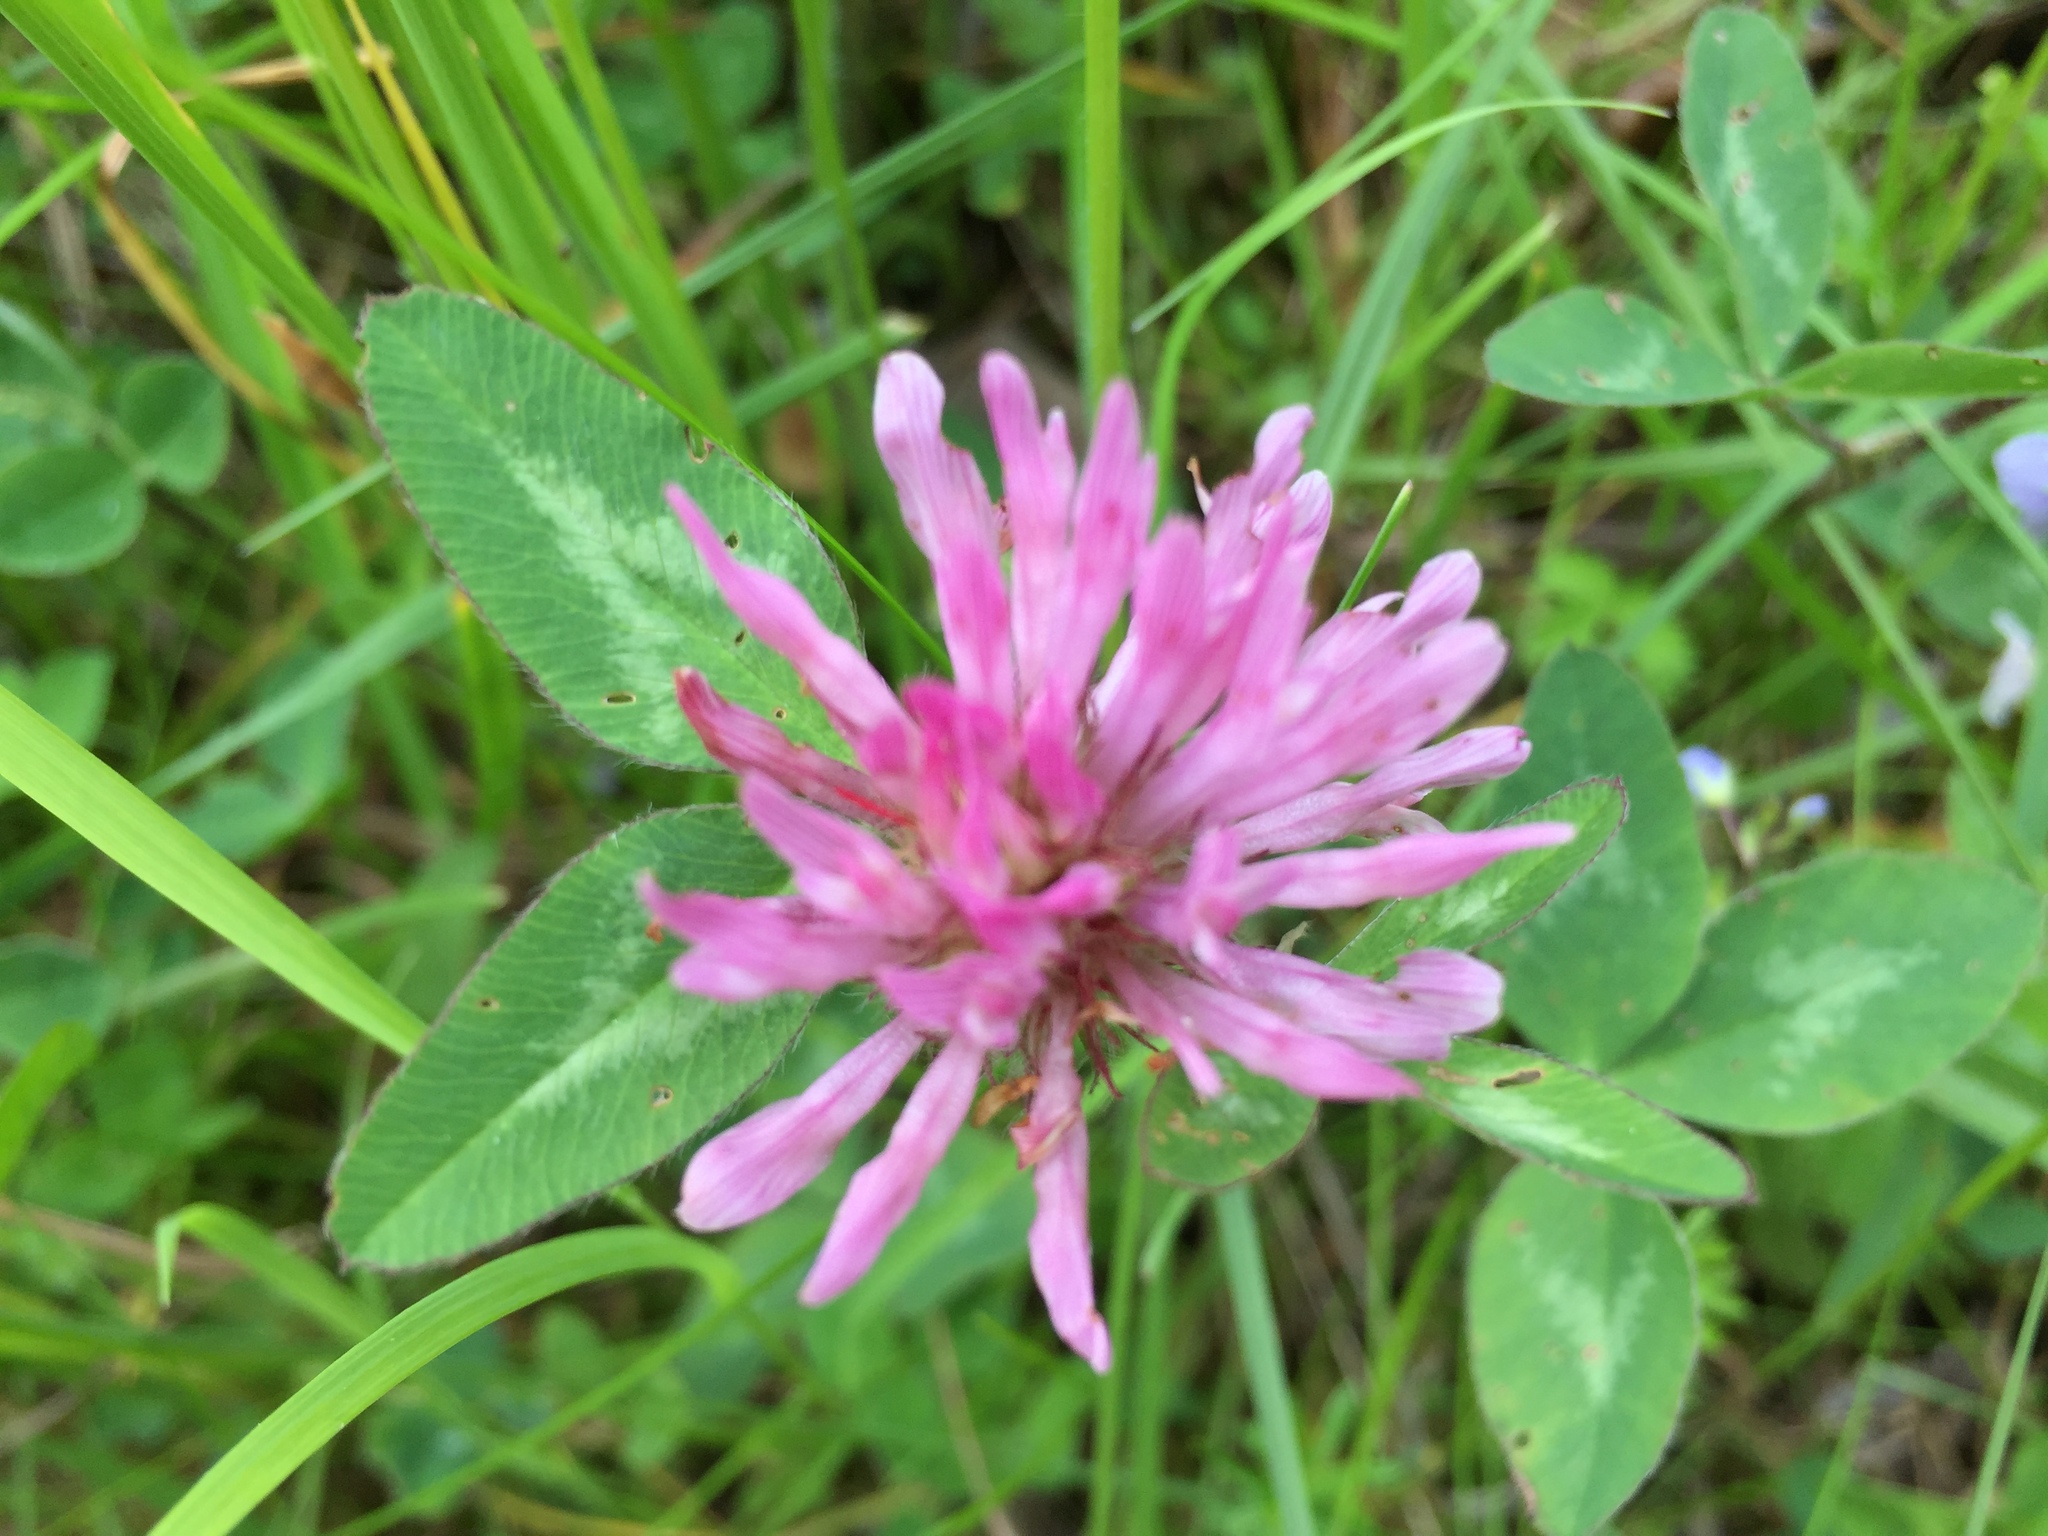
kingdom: Plantae
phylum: Tracheophyta
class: Magnoliopsida
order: Fabales
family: Fabaceae
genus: Trifolium
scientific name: Trifolium pratense
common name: Red clover
